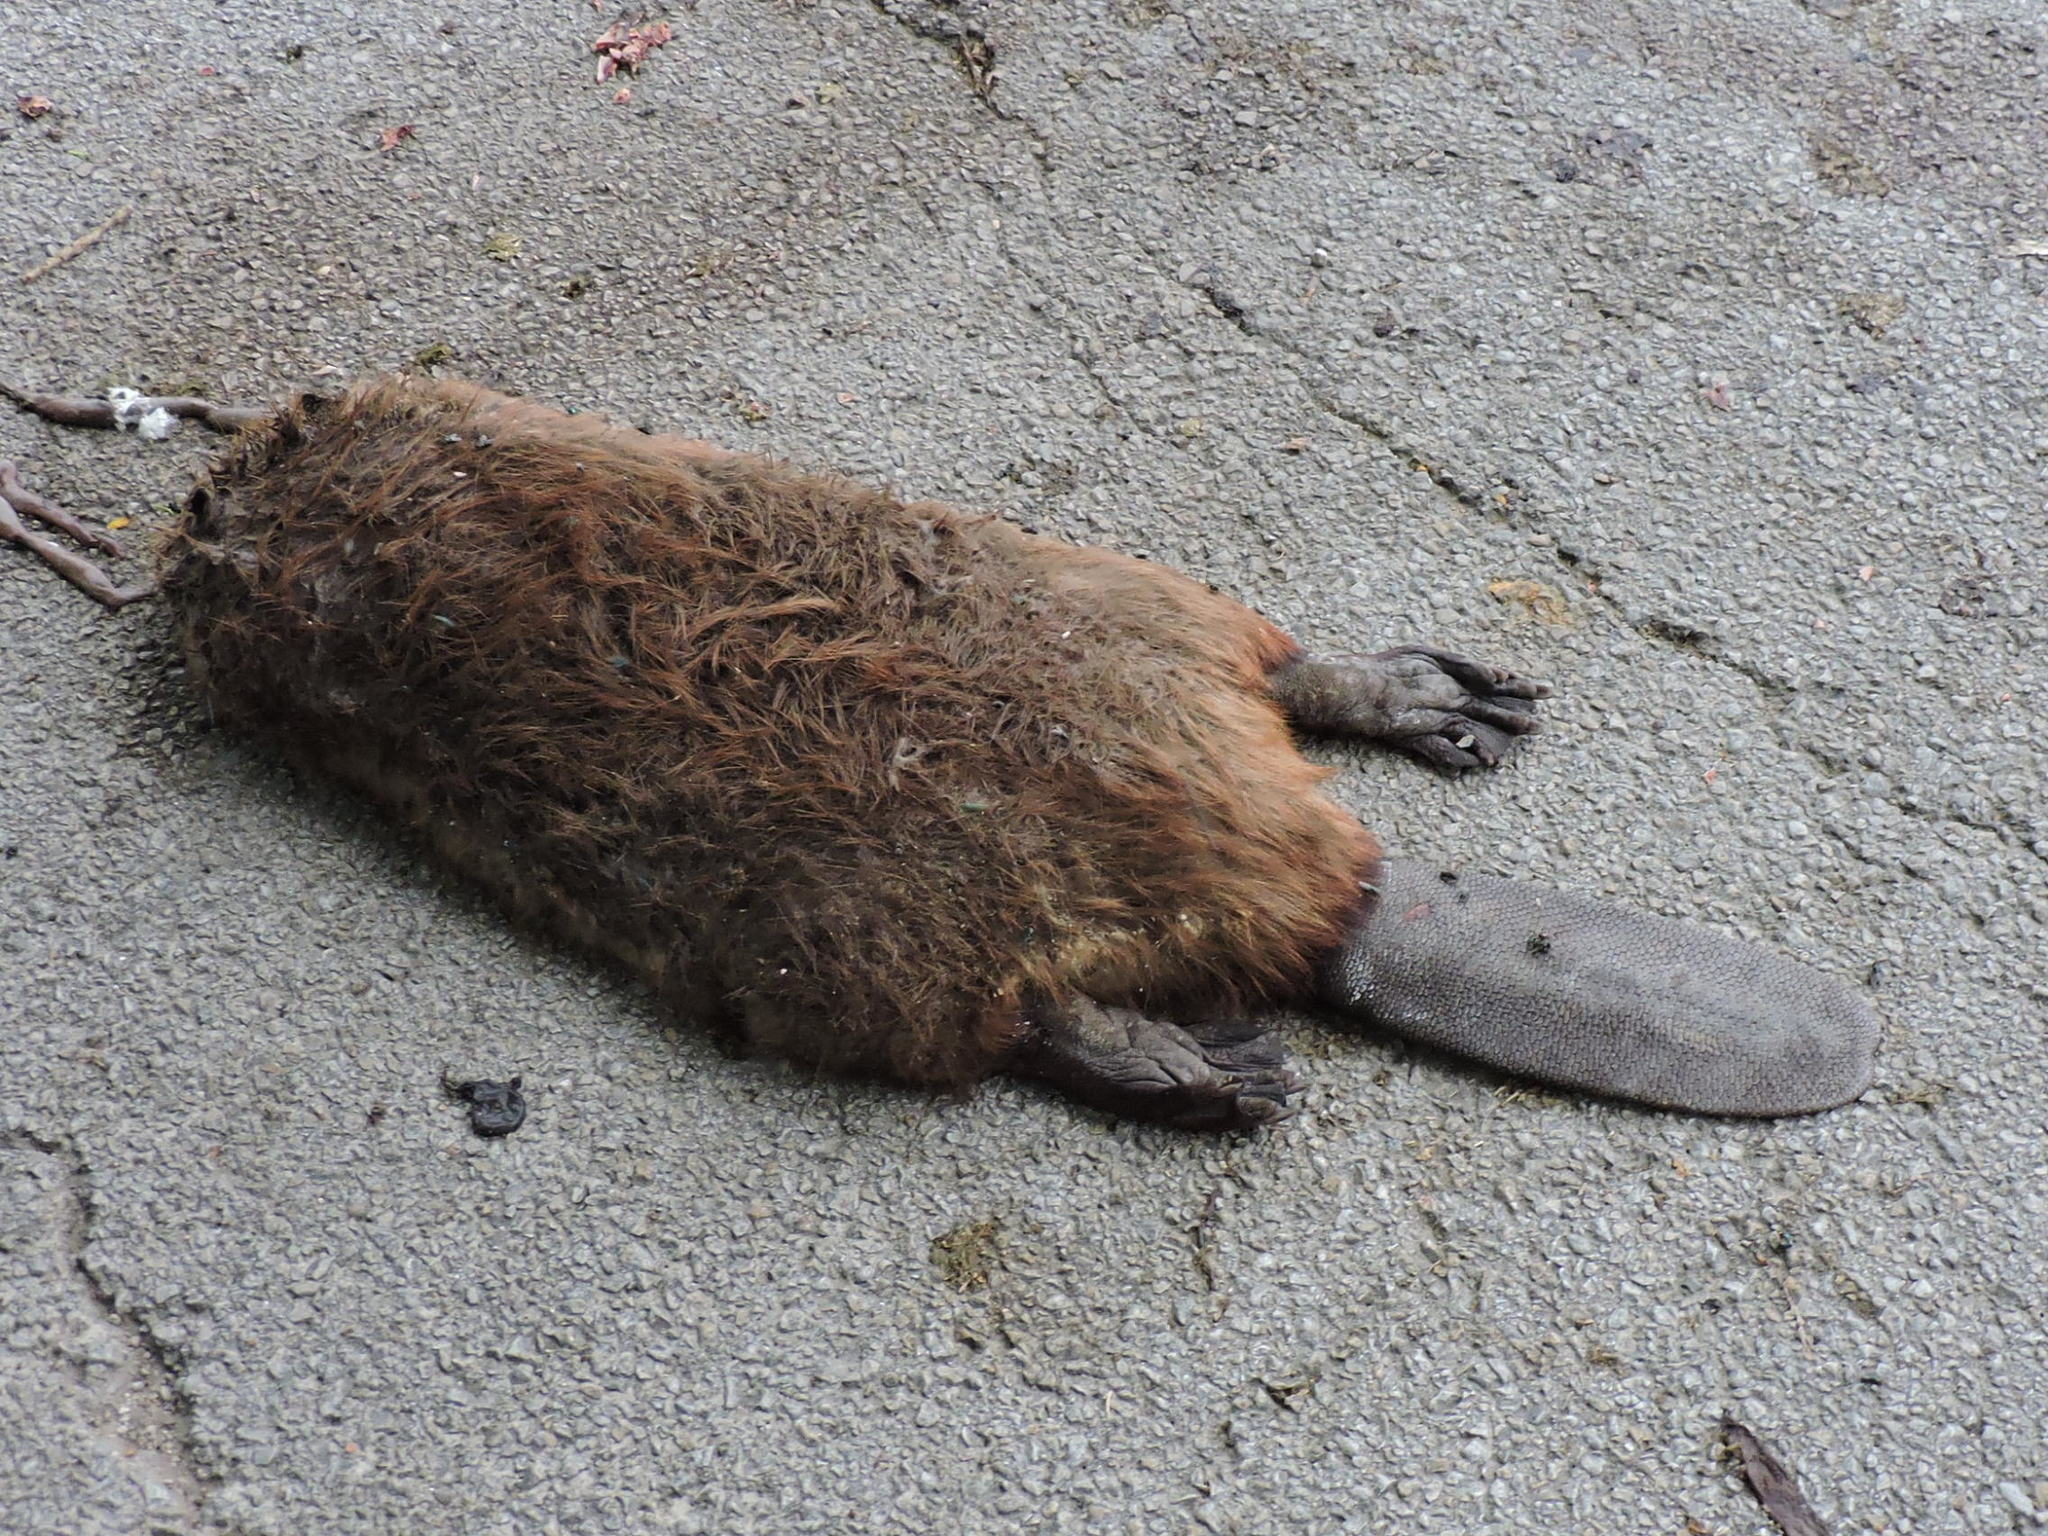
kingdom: Animalia
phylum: Chordata
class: Mammalia
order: Rodentia
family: Castoridae
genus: Castor
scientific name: Castor canadensis
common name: American beaver
